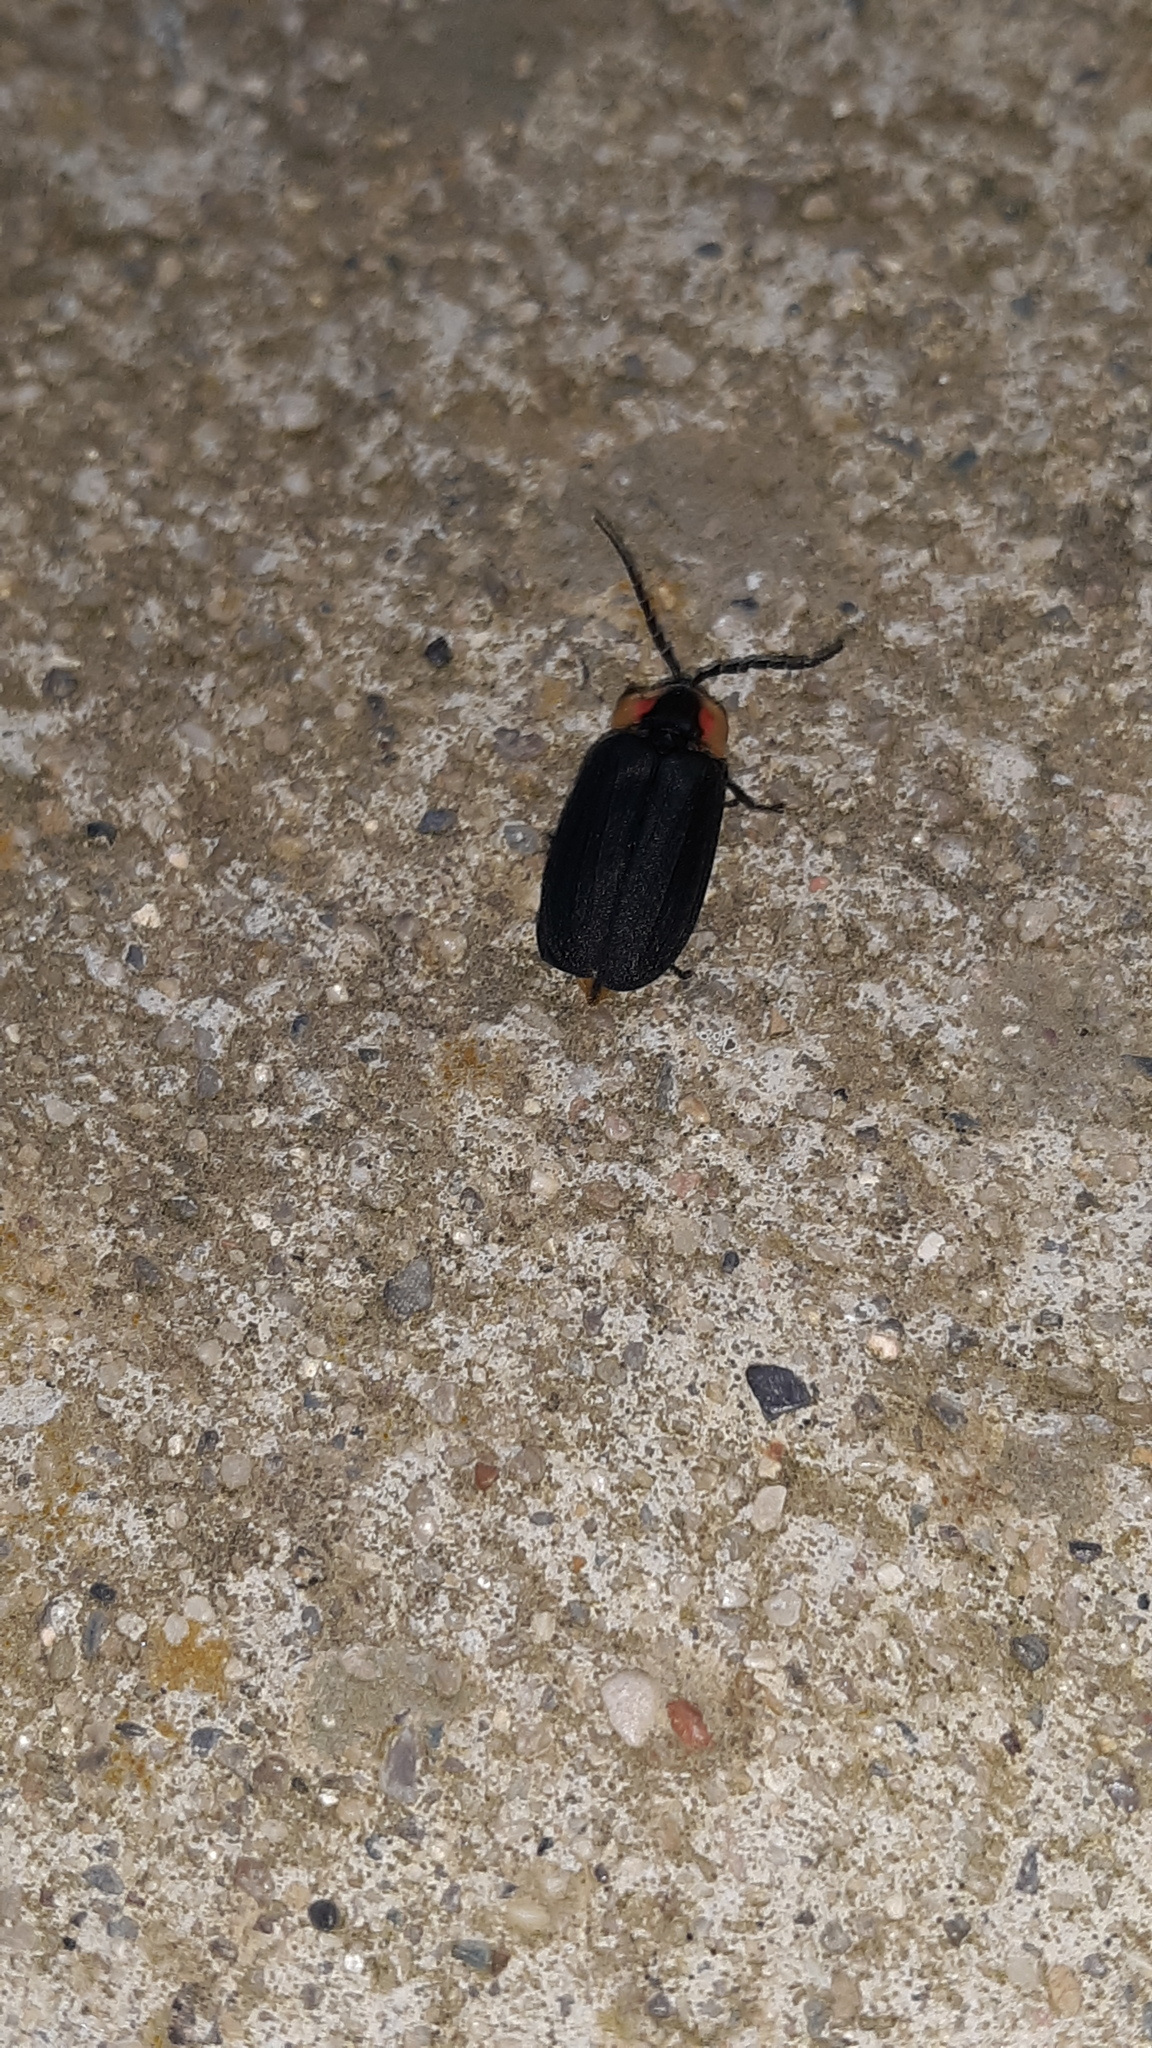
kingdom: Animalia
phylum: Arthropoda
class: Insecta
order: Coleoptera
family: Lampyridae
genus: Lucidota
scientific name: Lucidota atra
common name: Black firefly
